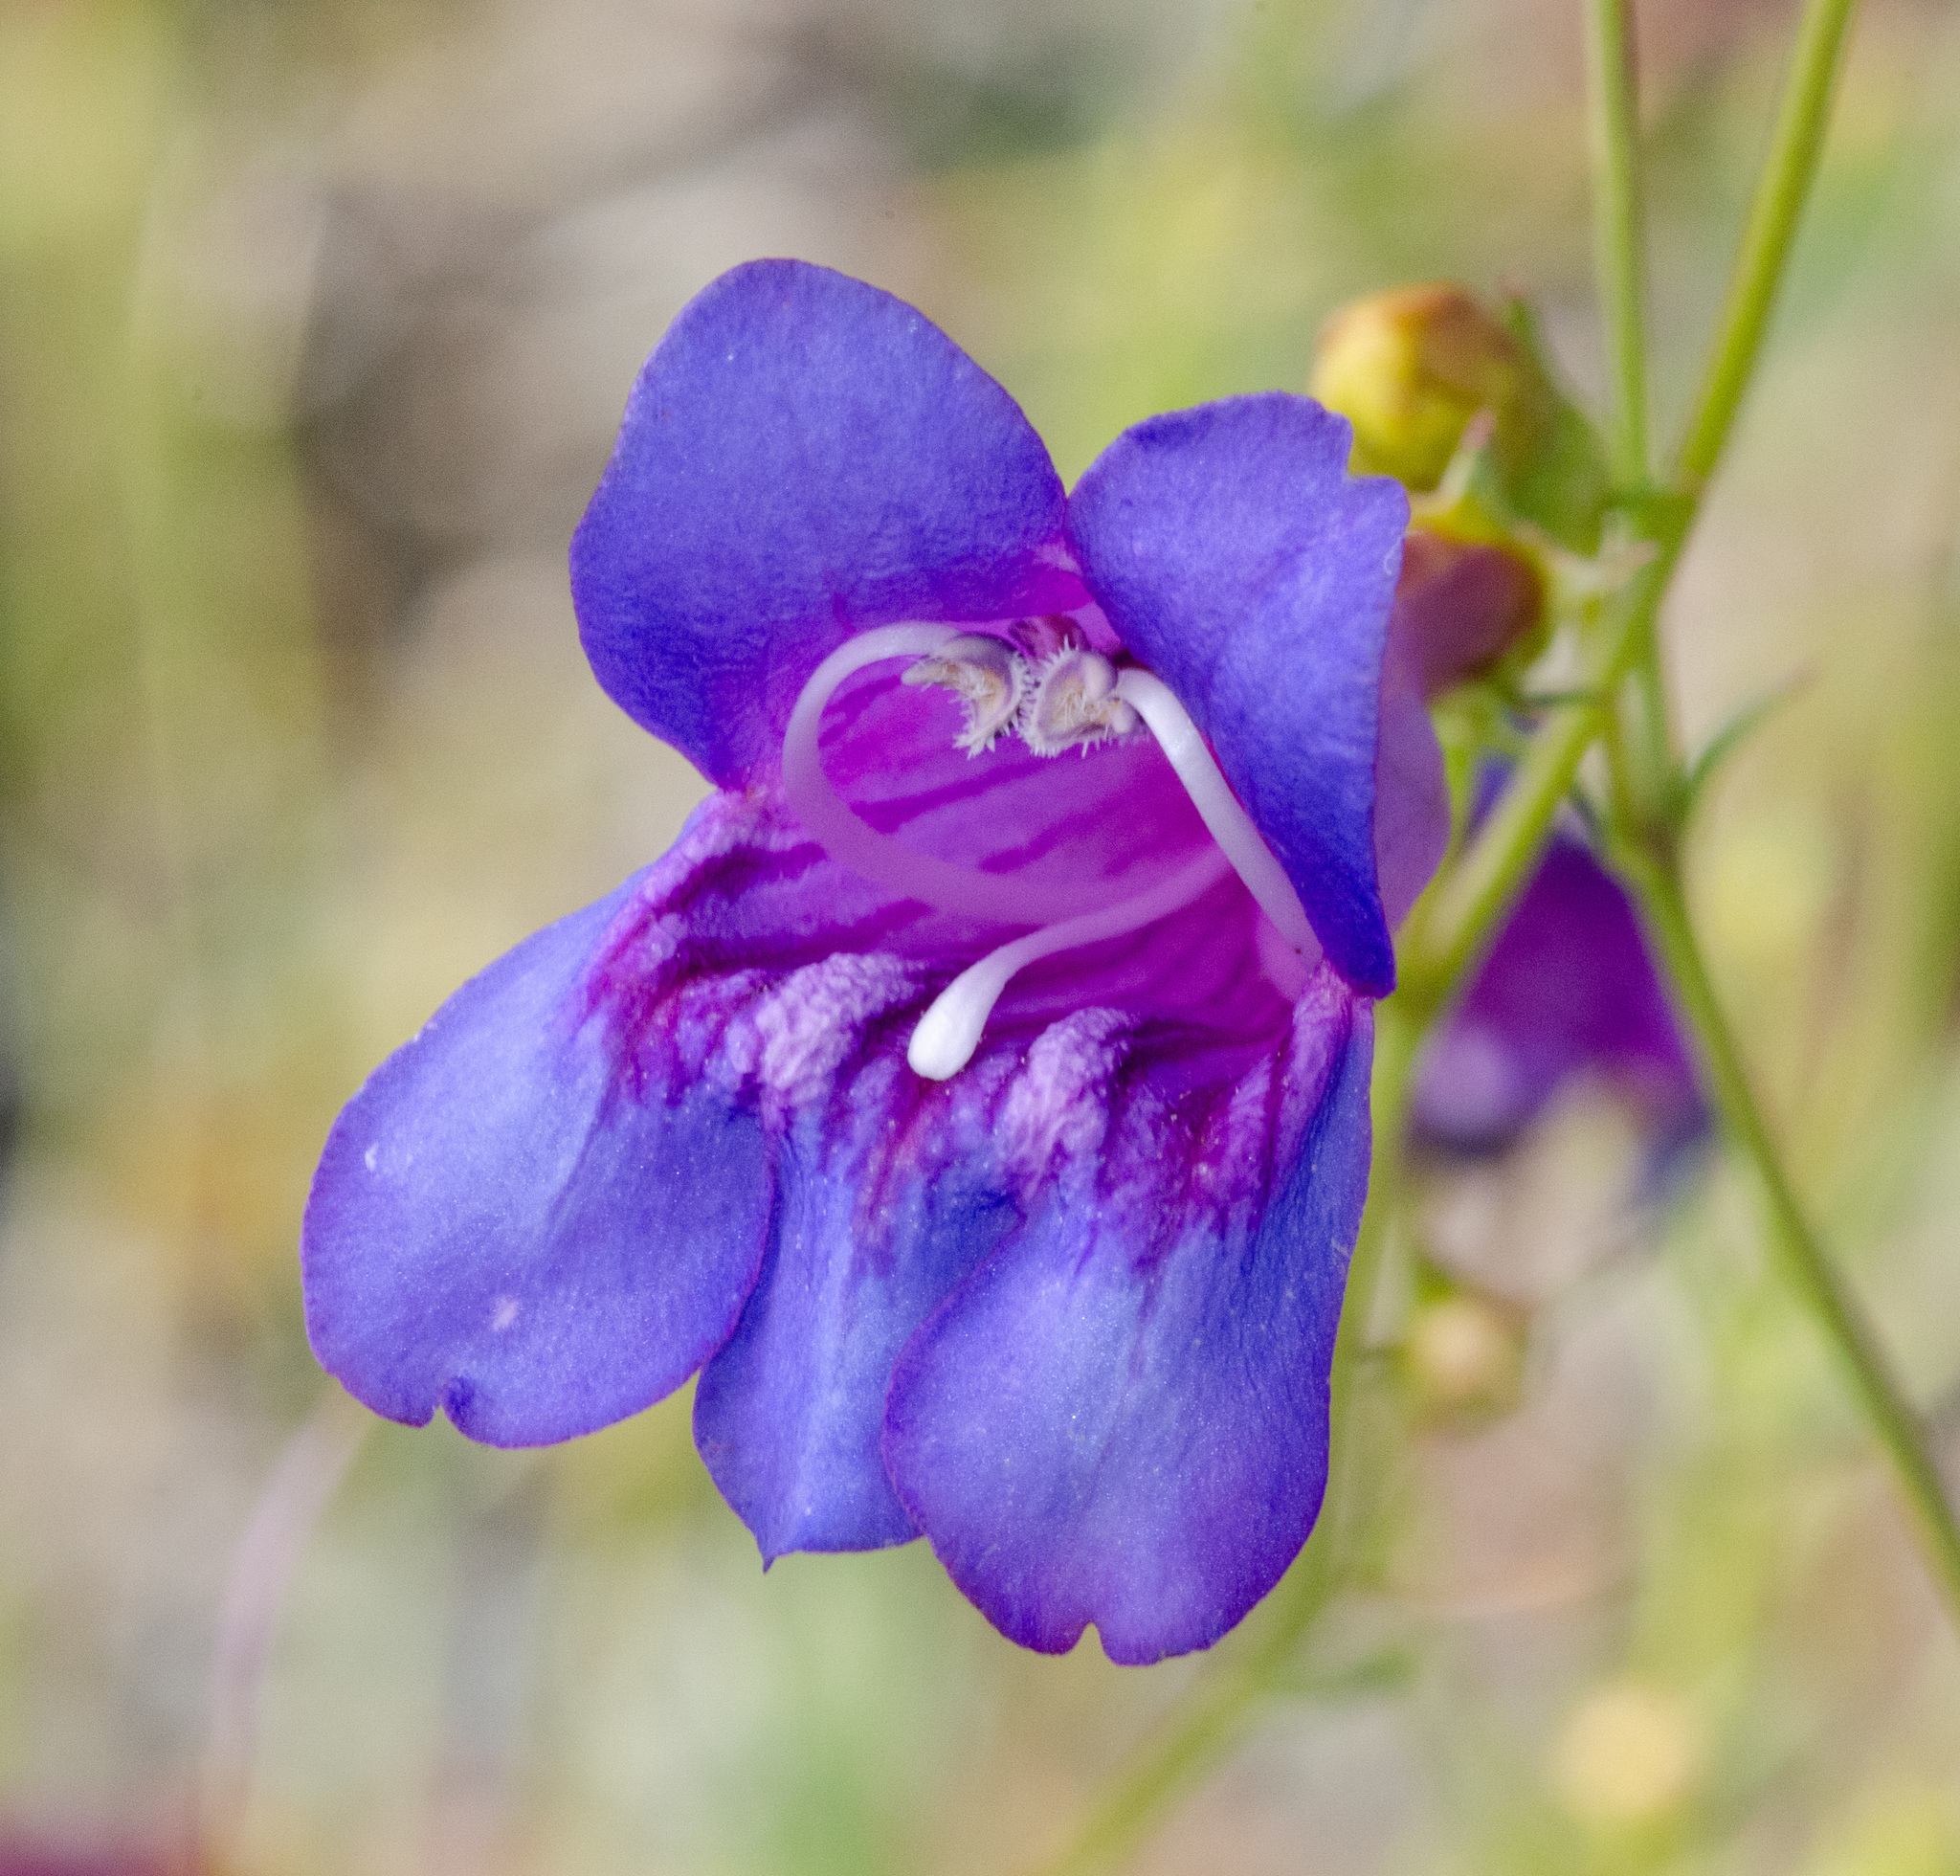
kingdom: Plantae
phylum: Tracheophyta
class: Magnoliopsida
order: Lamiales
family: Plantaginaceae
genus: Penstemon
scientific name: Penstemon heterophyllus
